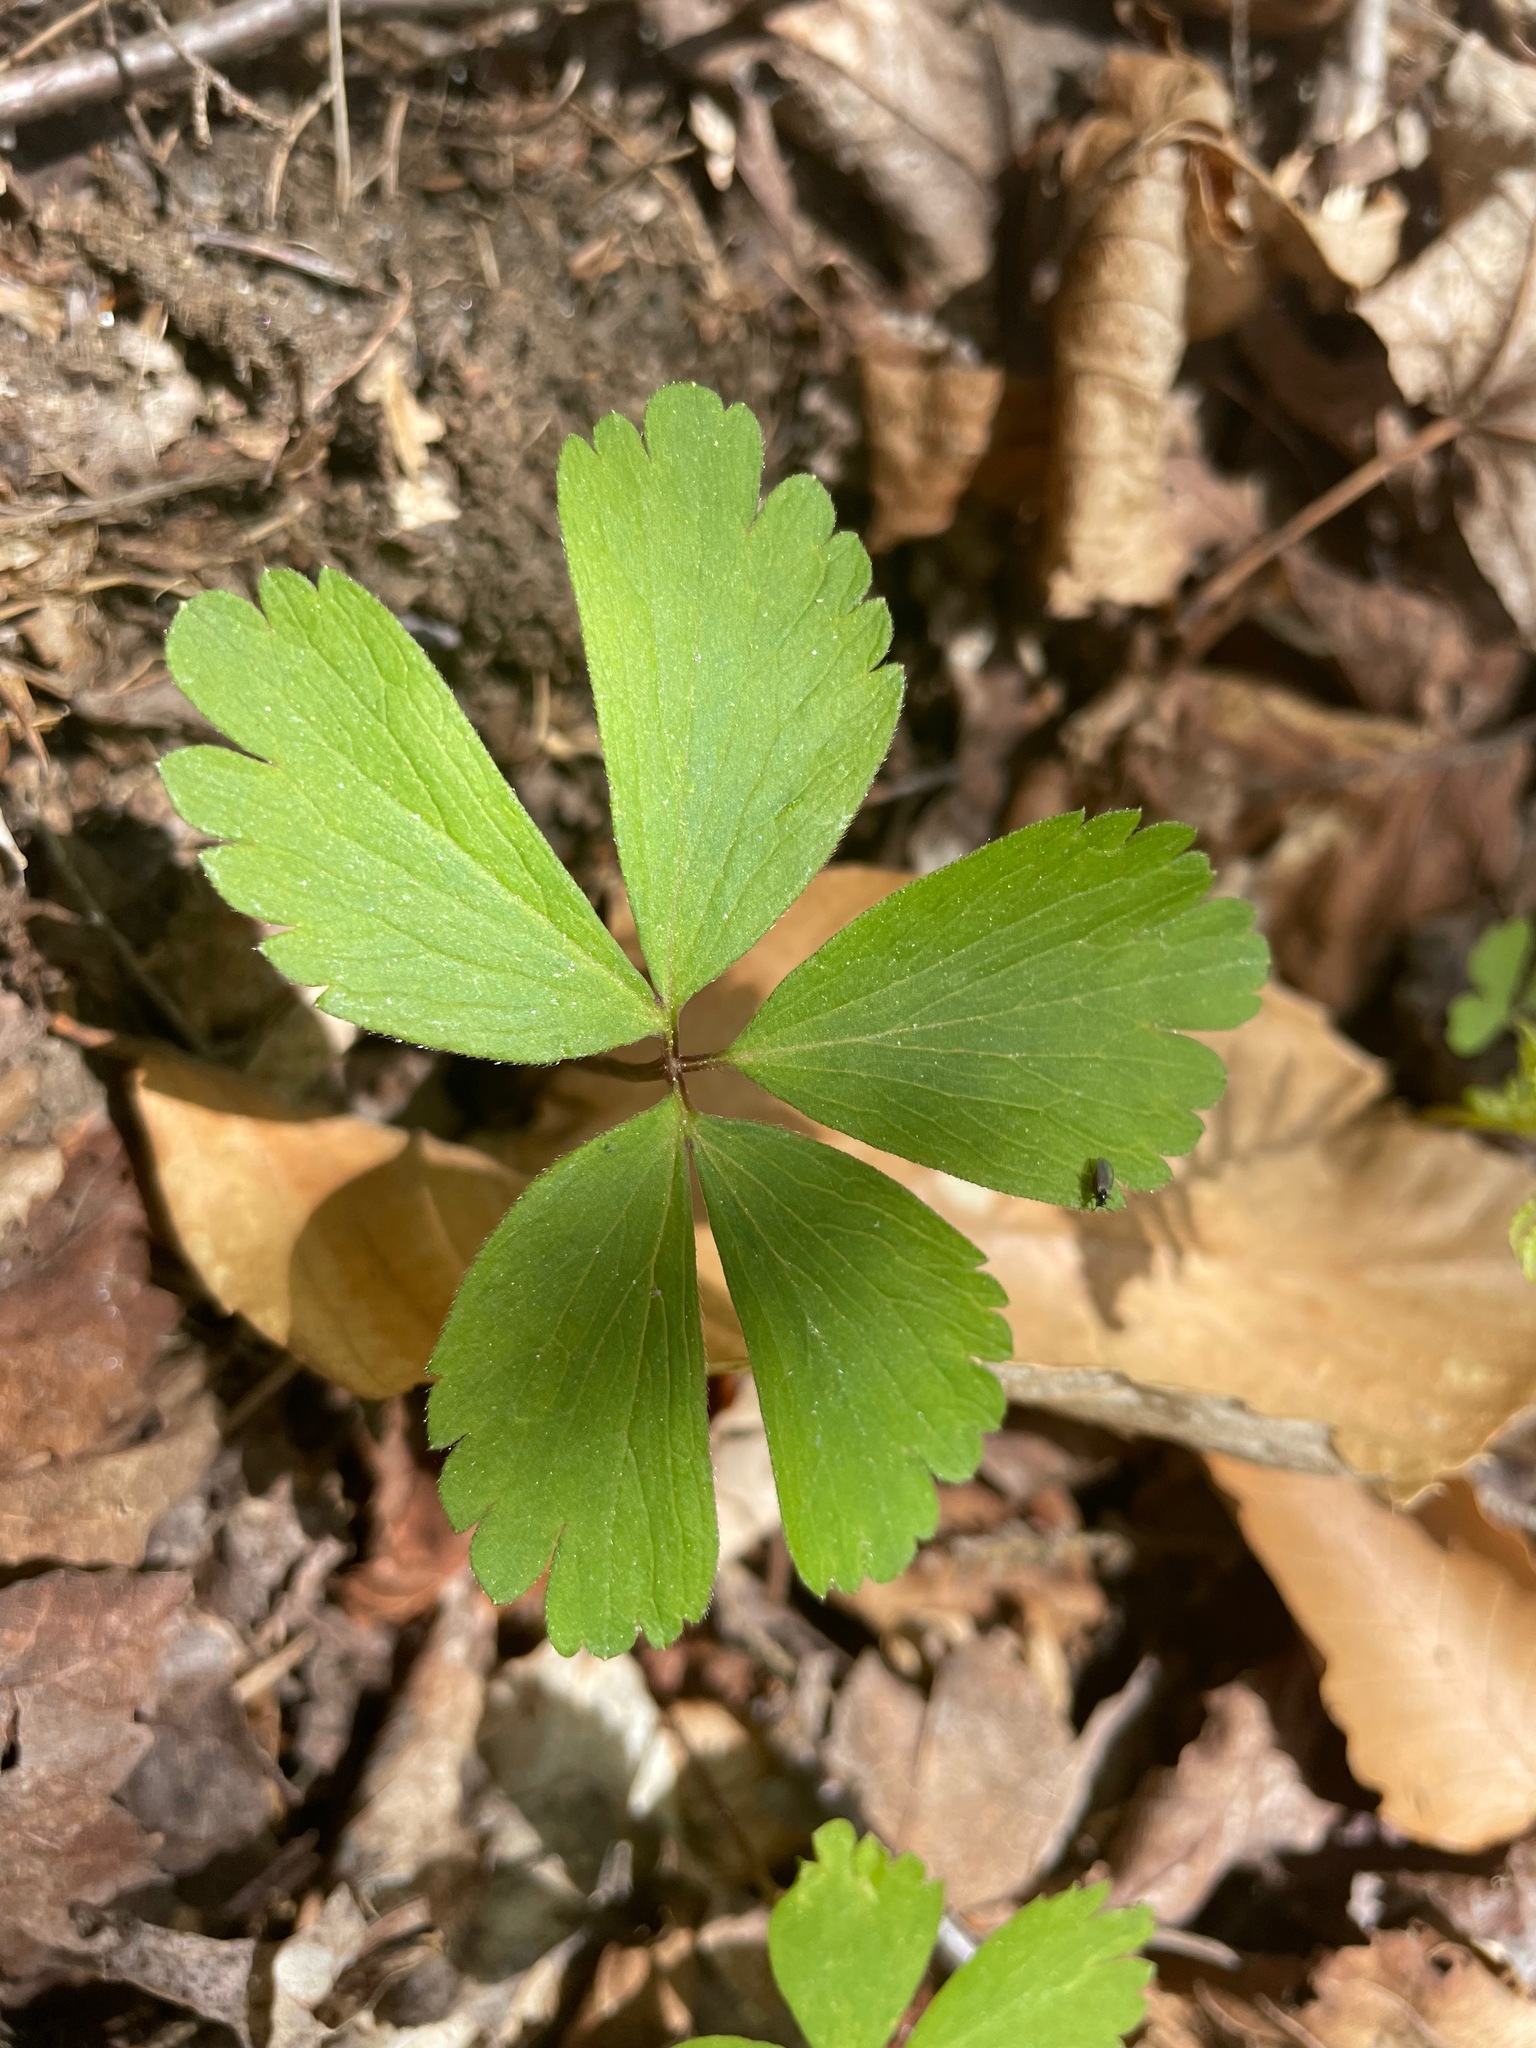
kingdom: Plantae
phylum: Tracheophyta
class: Magnoliopsida
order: Ranunculales
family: Ranunculaceae
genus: Anemone
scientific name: Anemone quinquefolia
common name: Wood anemone
